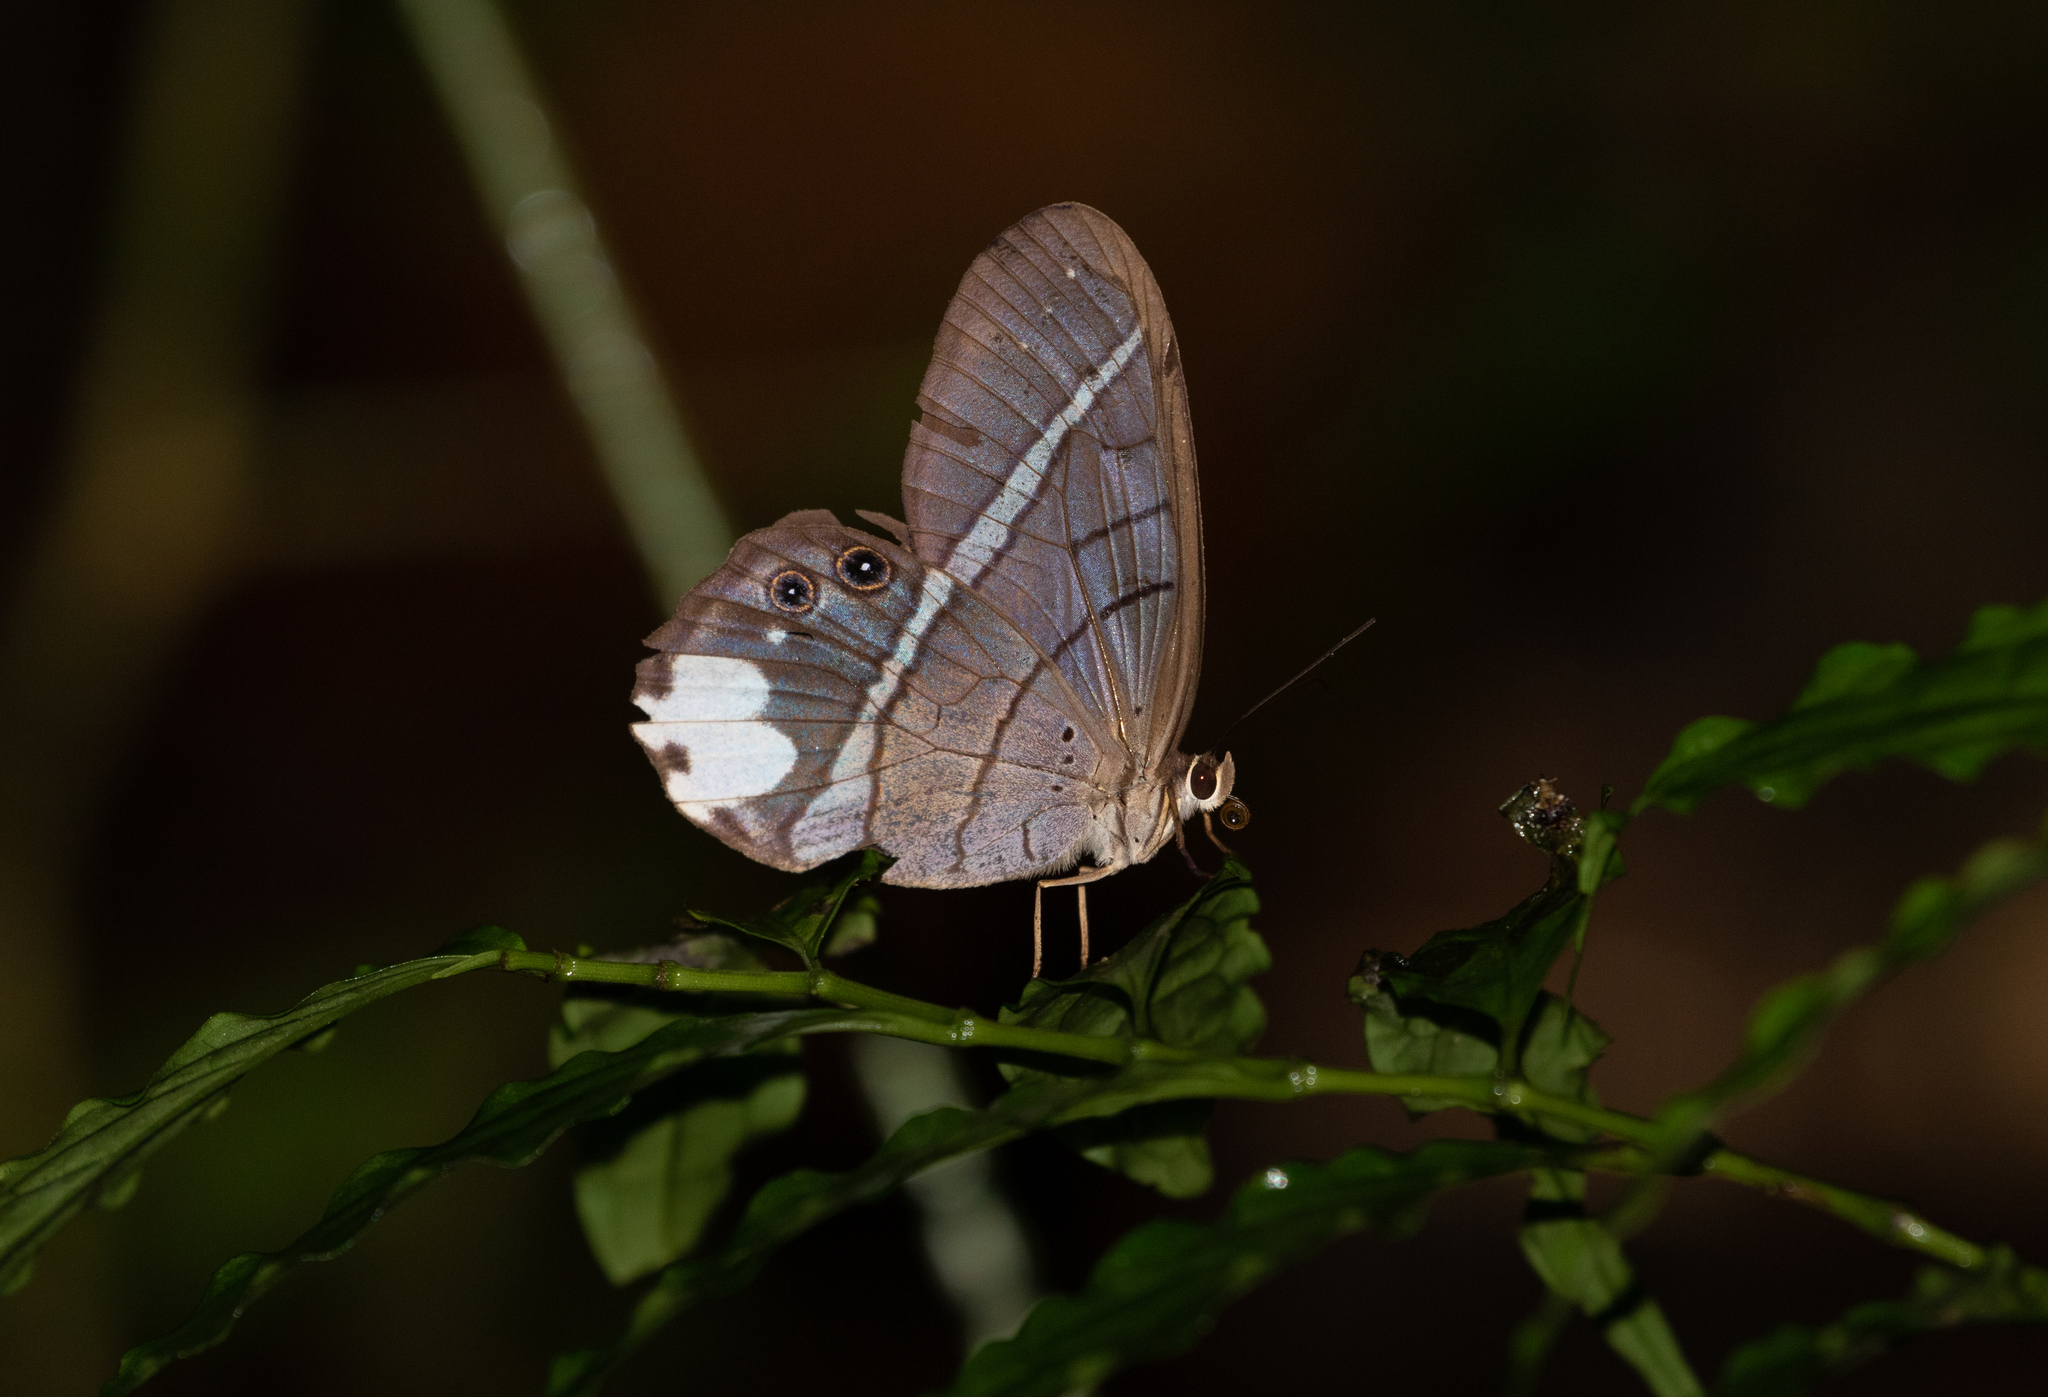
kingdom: Animalia
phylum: Arthropoda
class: Insecta
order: Lepidoptera
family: Nymphalidae
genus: Pierella
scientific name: Pierella astyoche
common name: Astyoche satyr
